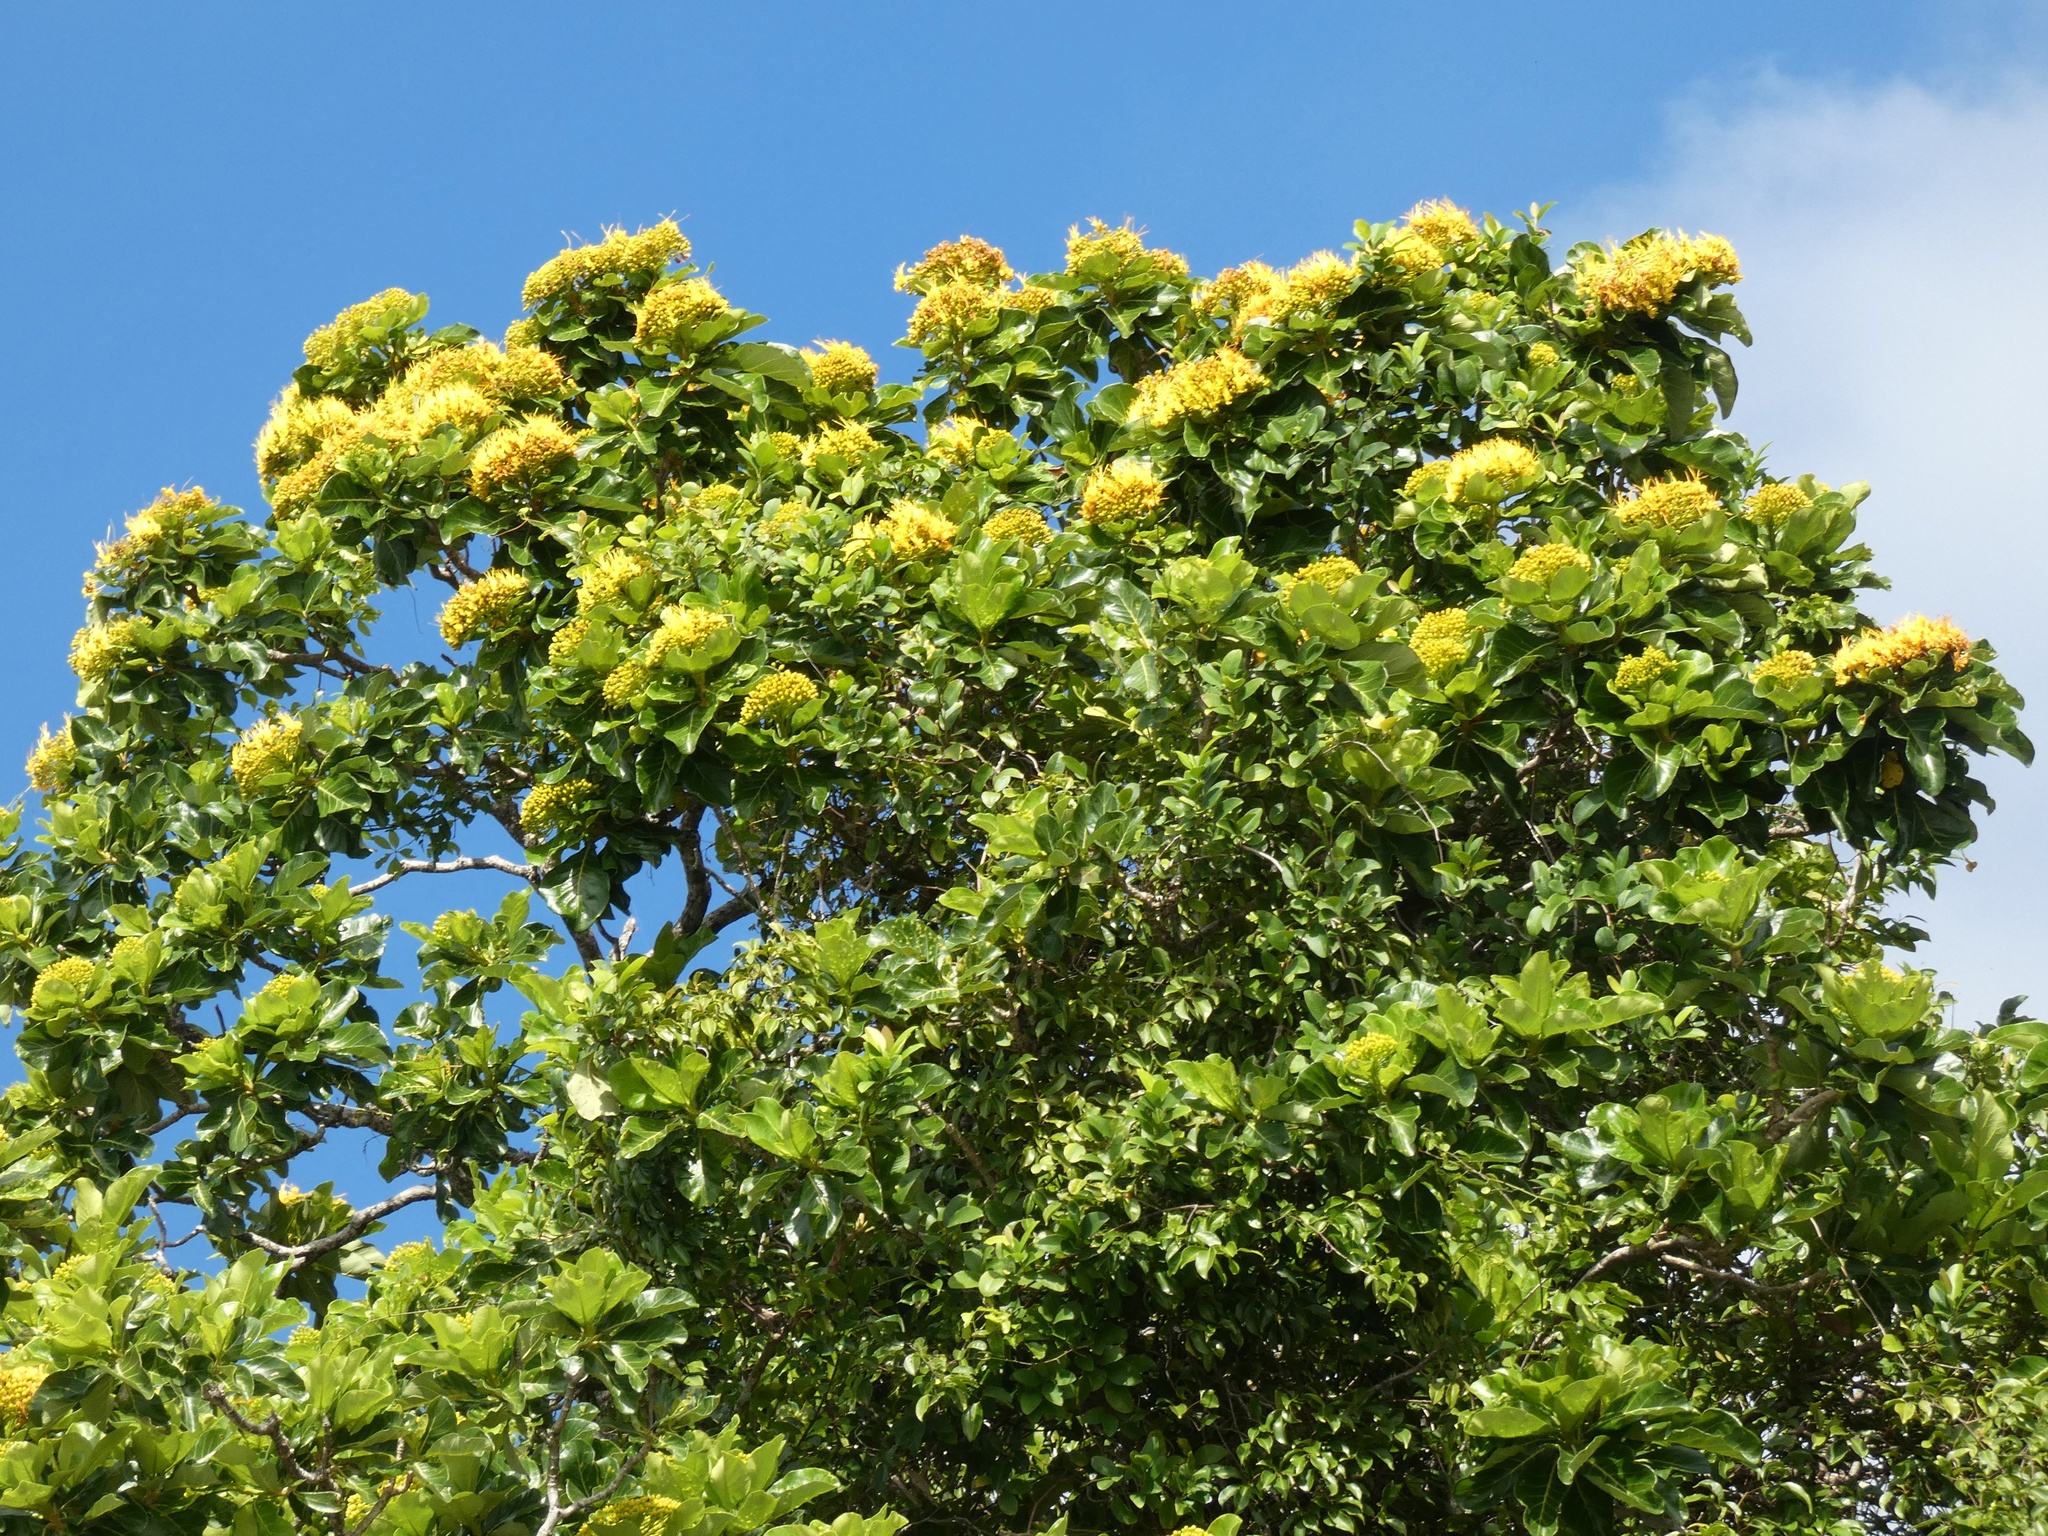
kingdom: Plantae
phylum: Tracheophyta
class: Magnoliopsida
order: Lamiales
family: Bignoniaceae
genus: Deplanchea
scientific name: Deplanchea tetraphylla
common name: Deplanchea
